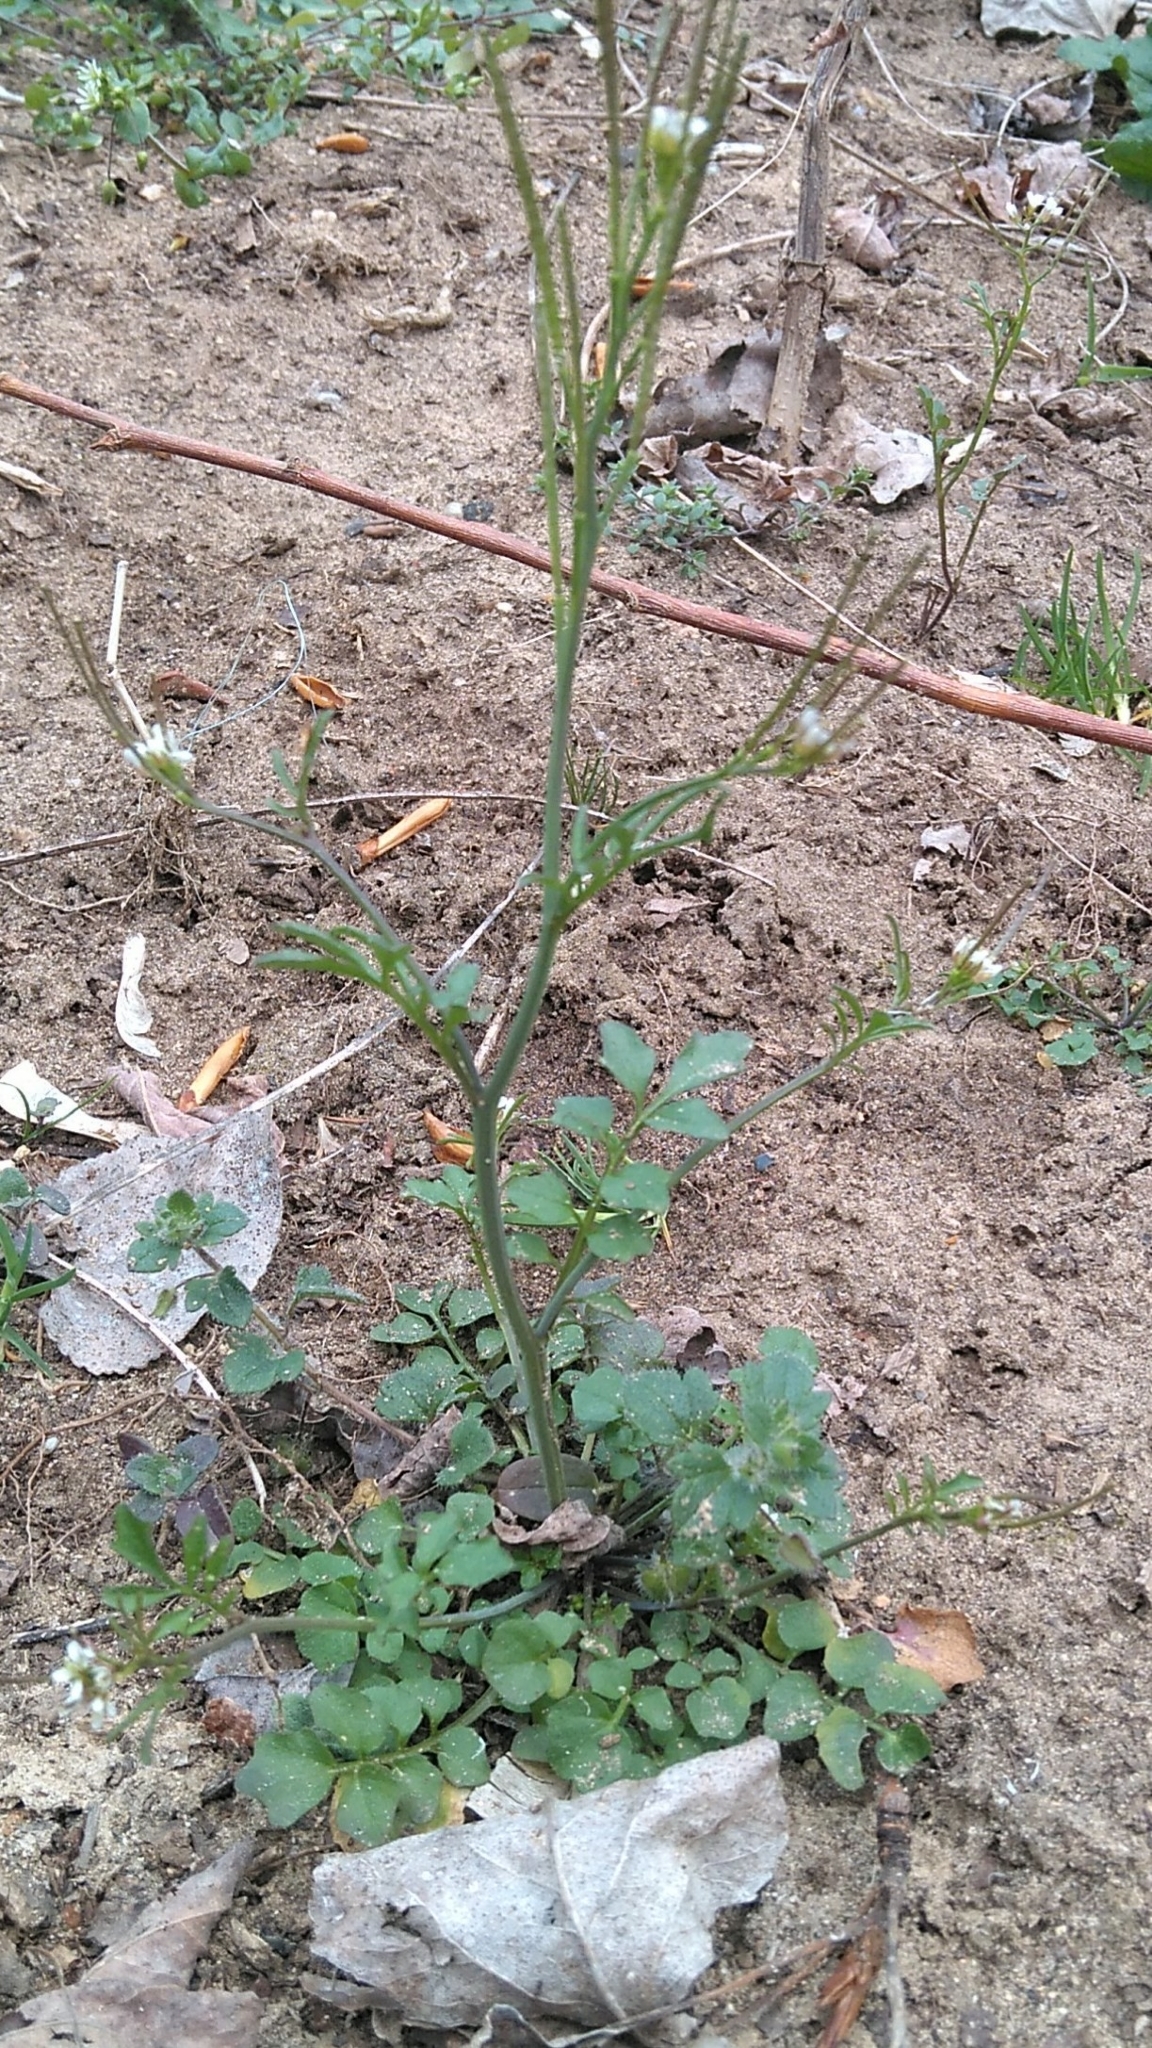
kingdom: Plantae
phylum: Tracheophyta
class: Magnoliopsida
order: Brassicales
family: Brassicaceae
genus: Cardamine
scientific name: Cardamine hirsuta
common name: Hairy bittercress
